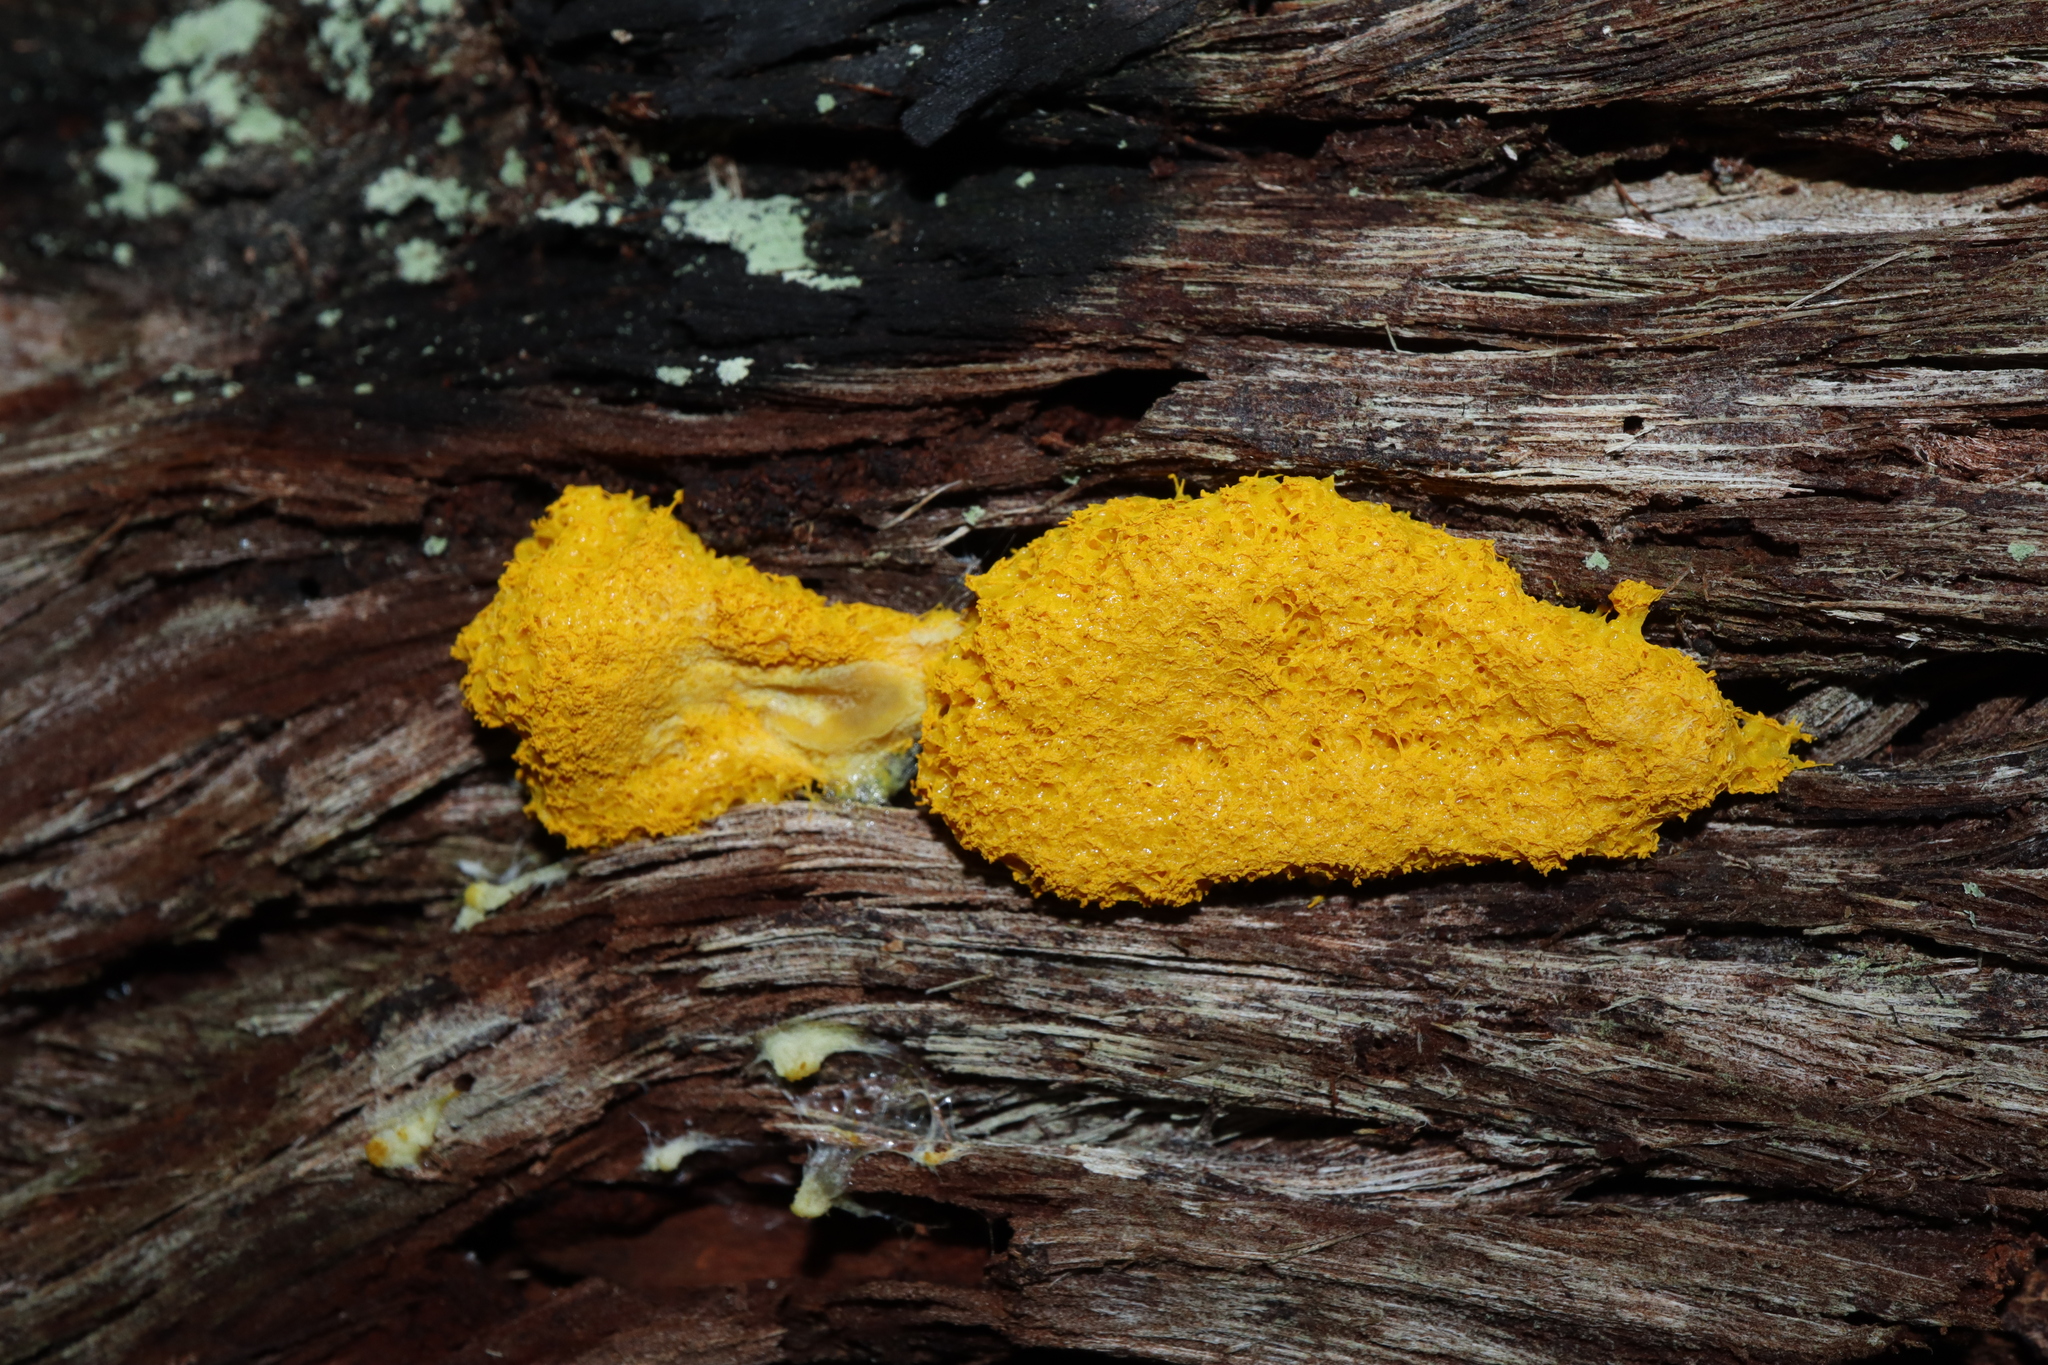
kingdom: Protozoa
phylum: Mycetozoa
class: Myxomycetes
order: Physarales
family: Physaraceae
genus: Fuligo
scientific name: Fuligo septica
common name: Dog vomit slime mold
